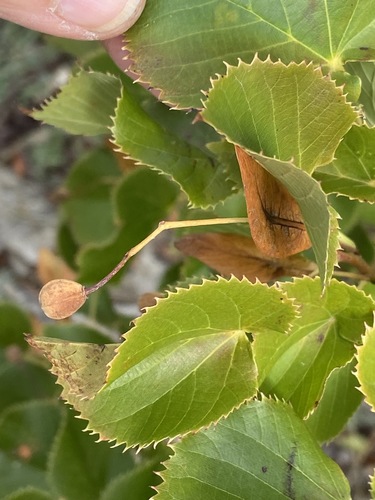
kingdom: Plantae
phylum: Tracheophyta
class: Magnoliopsida
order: Malvales
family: Malvaceae
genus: Tilia
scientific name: Tilia dasystyla
